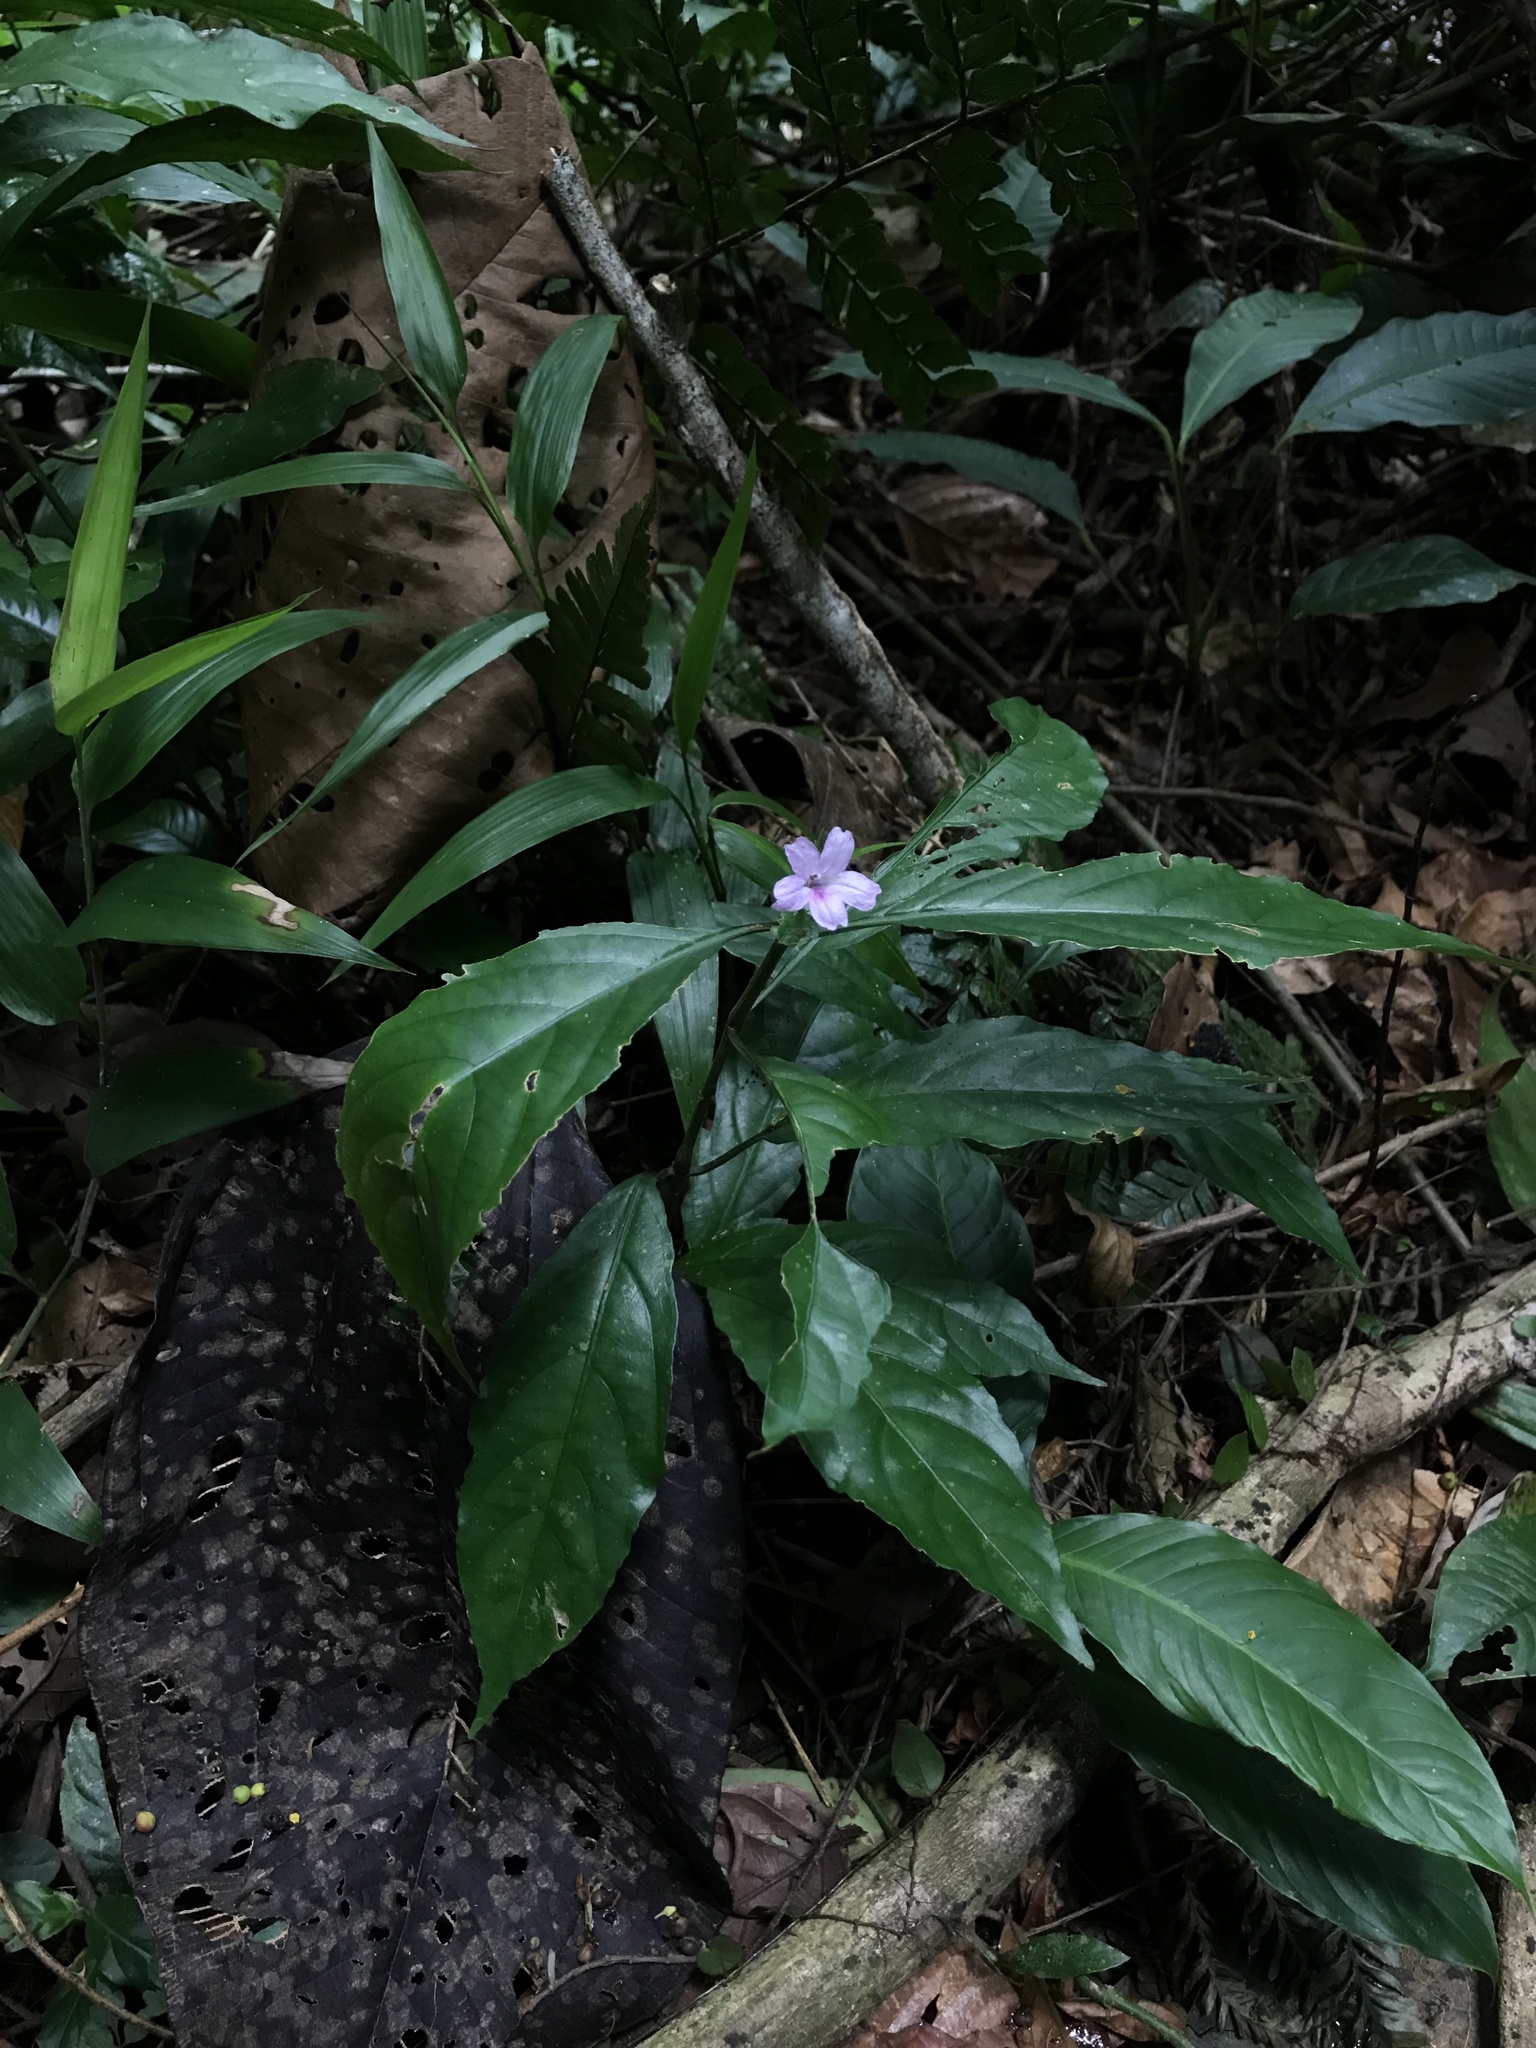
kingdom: Plantae
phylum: Tracheophyta
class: Magnoliopsida
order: Lamiales
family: Acanthaceae
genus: Ruellia
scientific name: Ruellia terminalis
